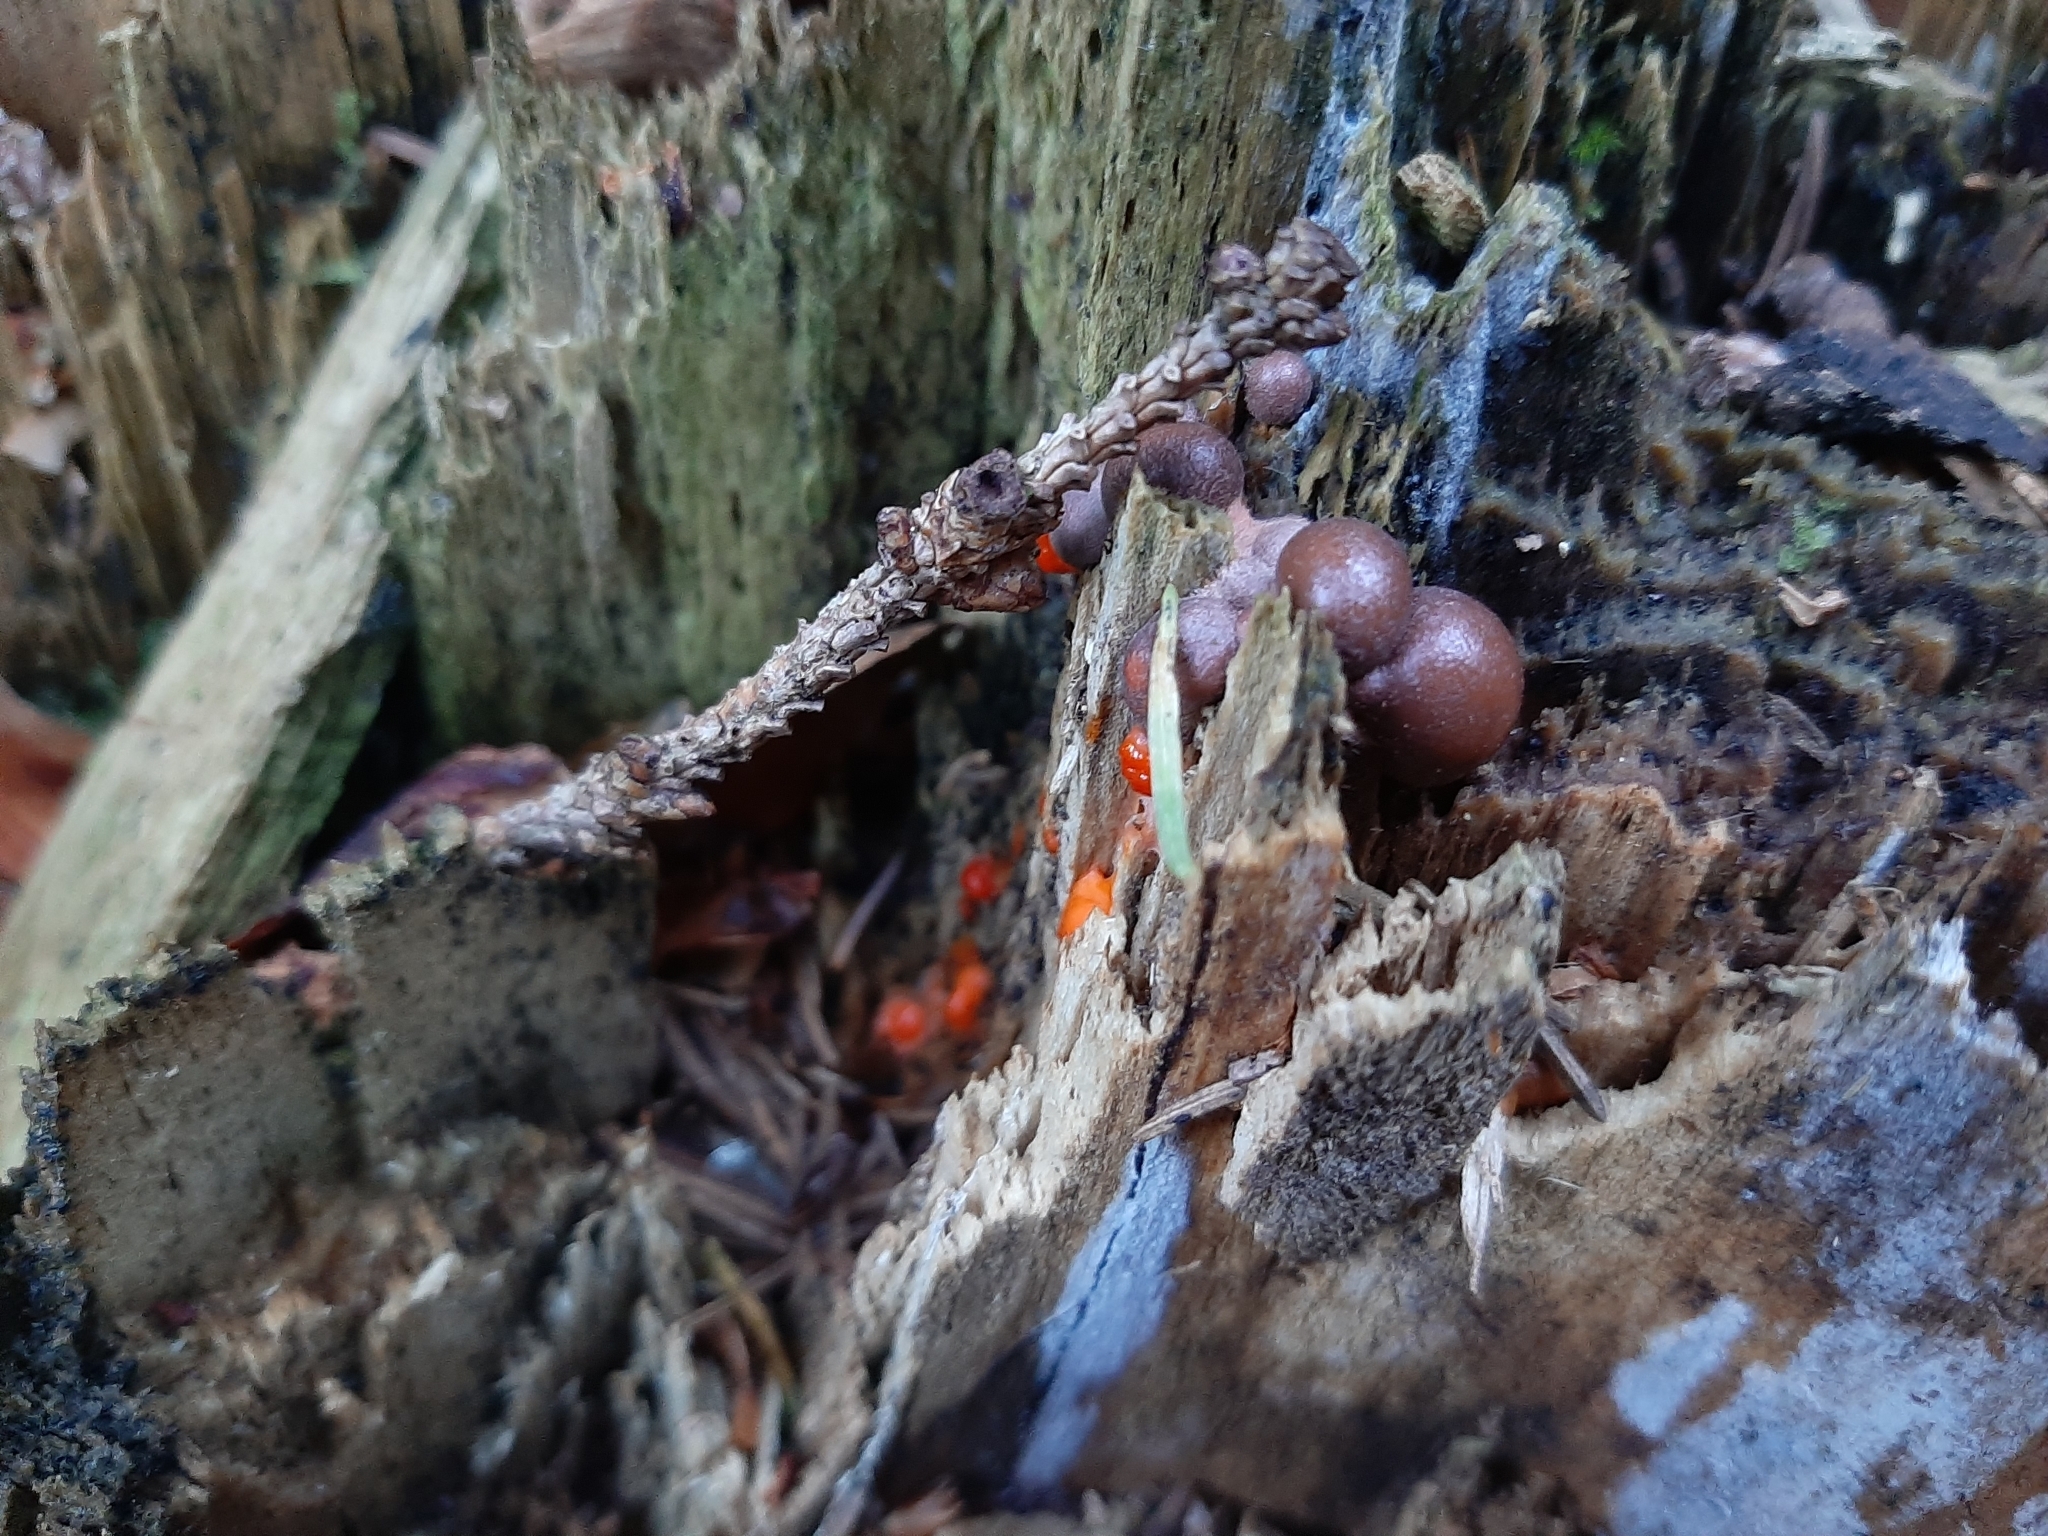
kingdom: Protozoa
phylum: Mycetozoa
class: Myxomycetes
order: Cribrariales
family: Tubiferaceae
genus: Lycogala
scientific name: Lycogala epidendrum
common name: Wolf's milk
